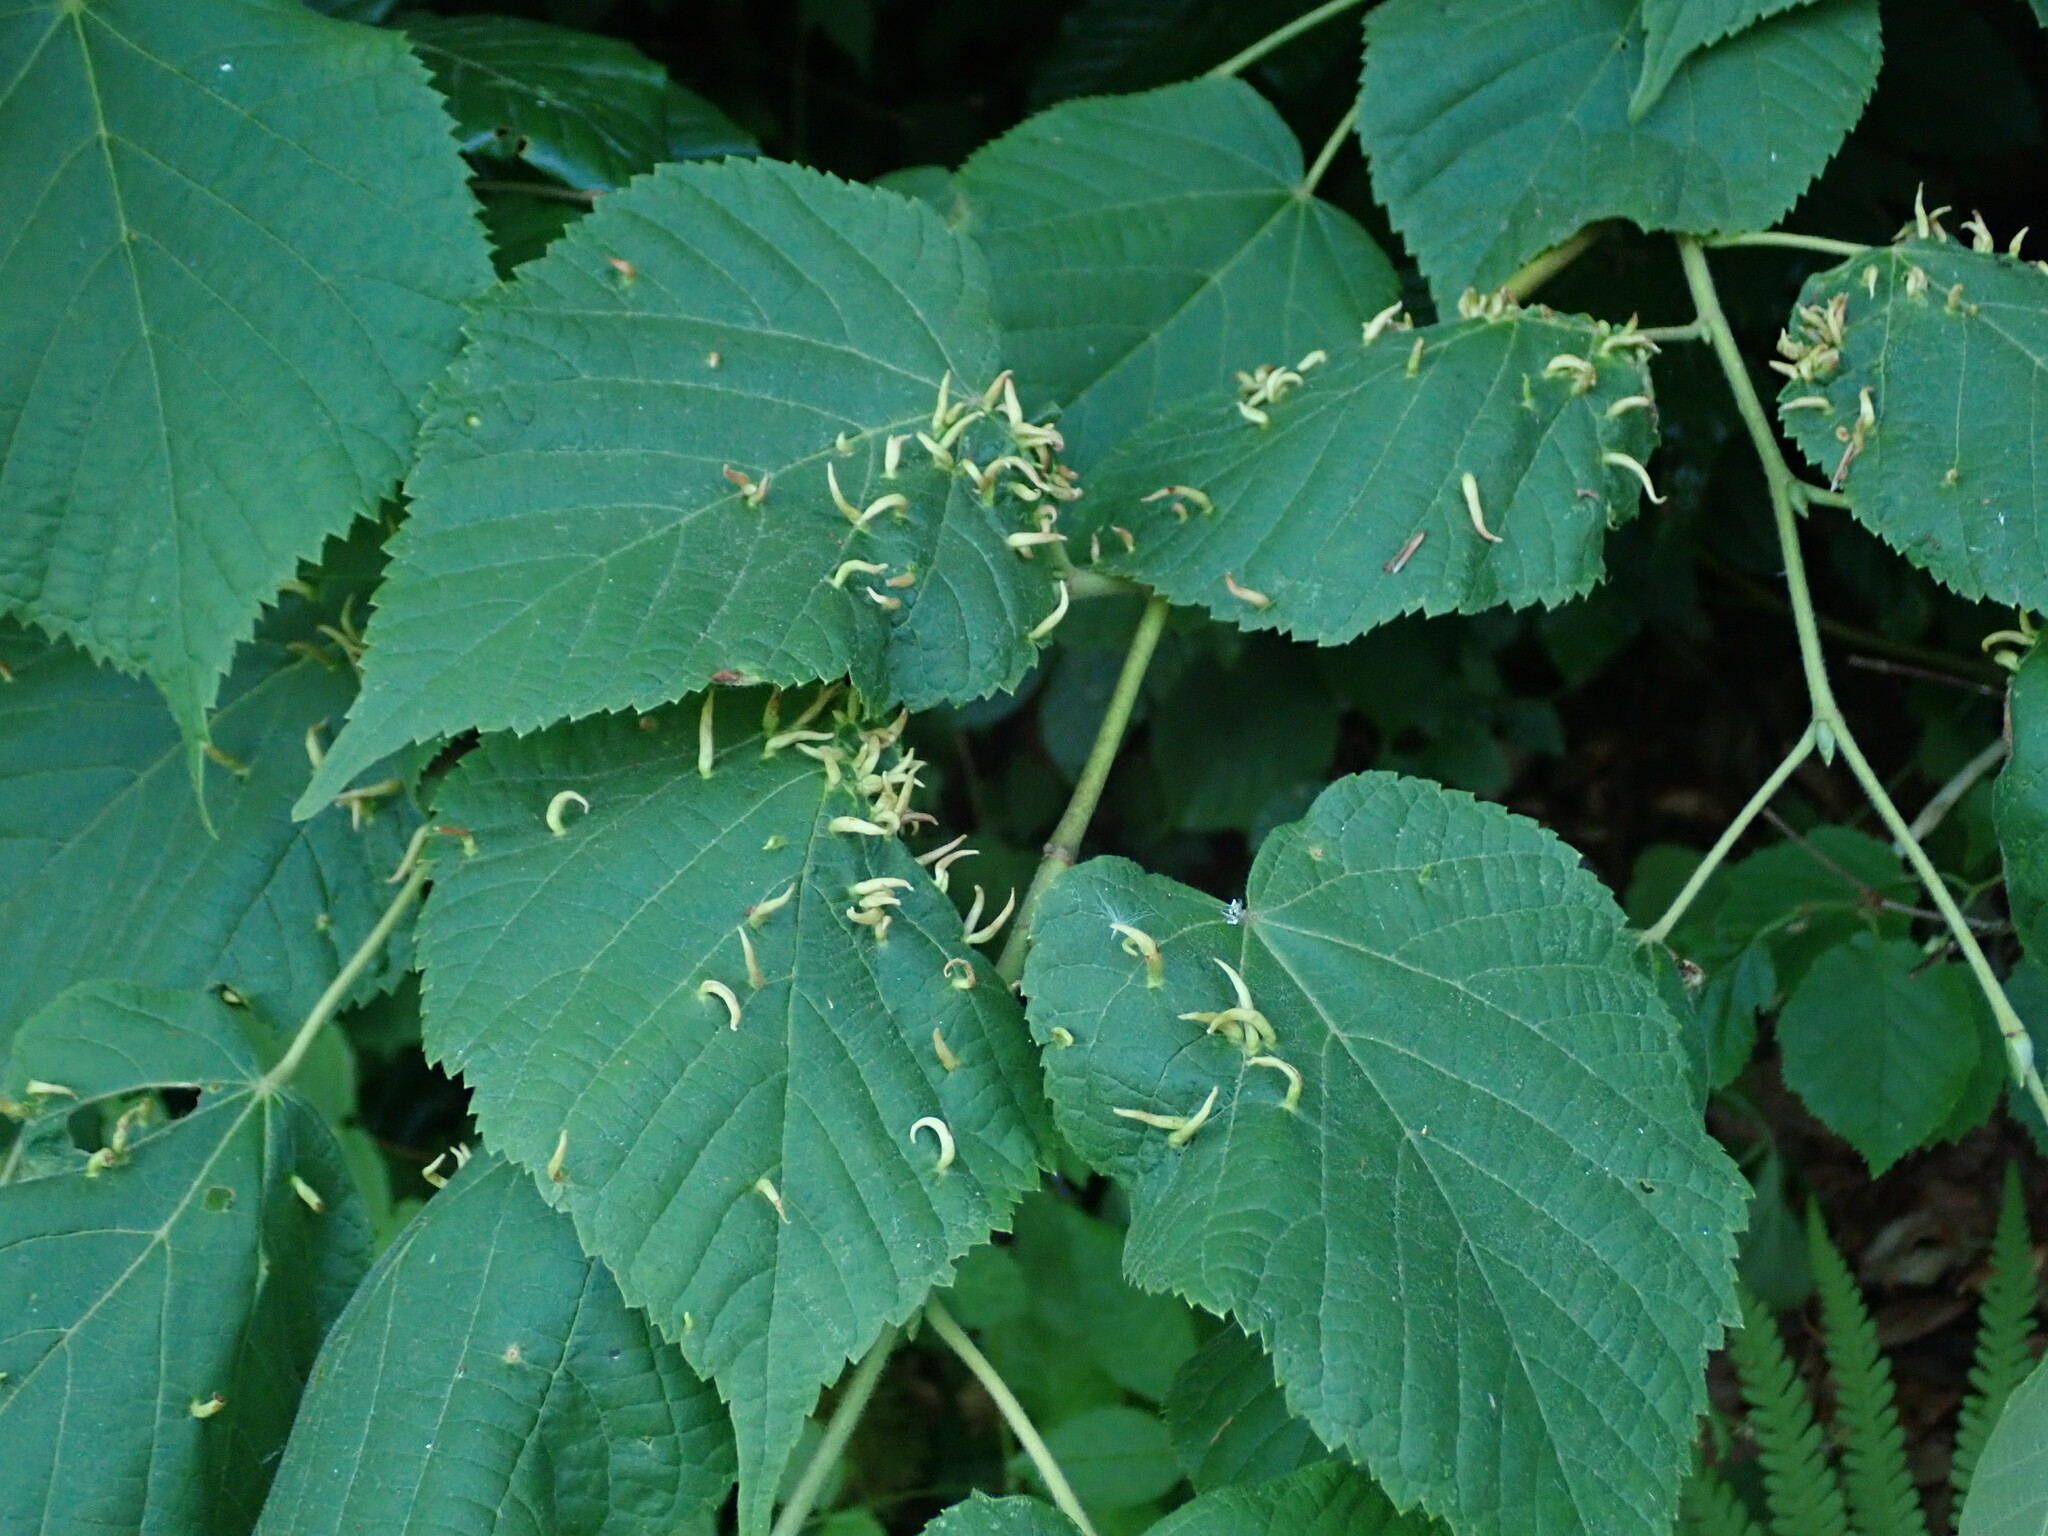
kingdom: Animalia
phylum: Arthropoda
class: Arachnida
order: Trombidiformes
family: Eriophyidae
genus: Eriophyes
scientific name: Eriophyes tiliae
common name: Red nail gall mite
